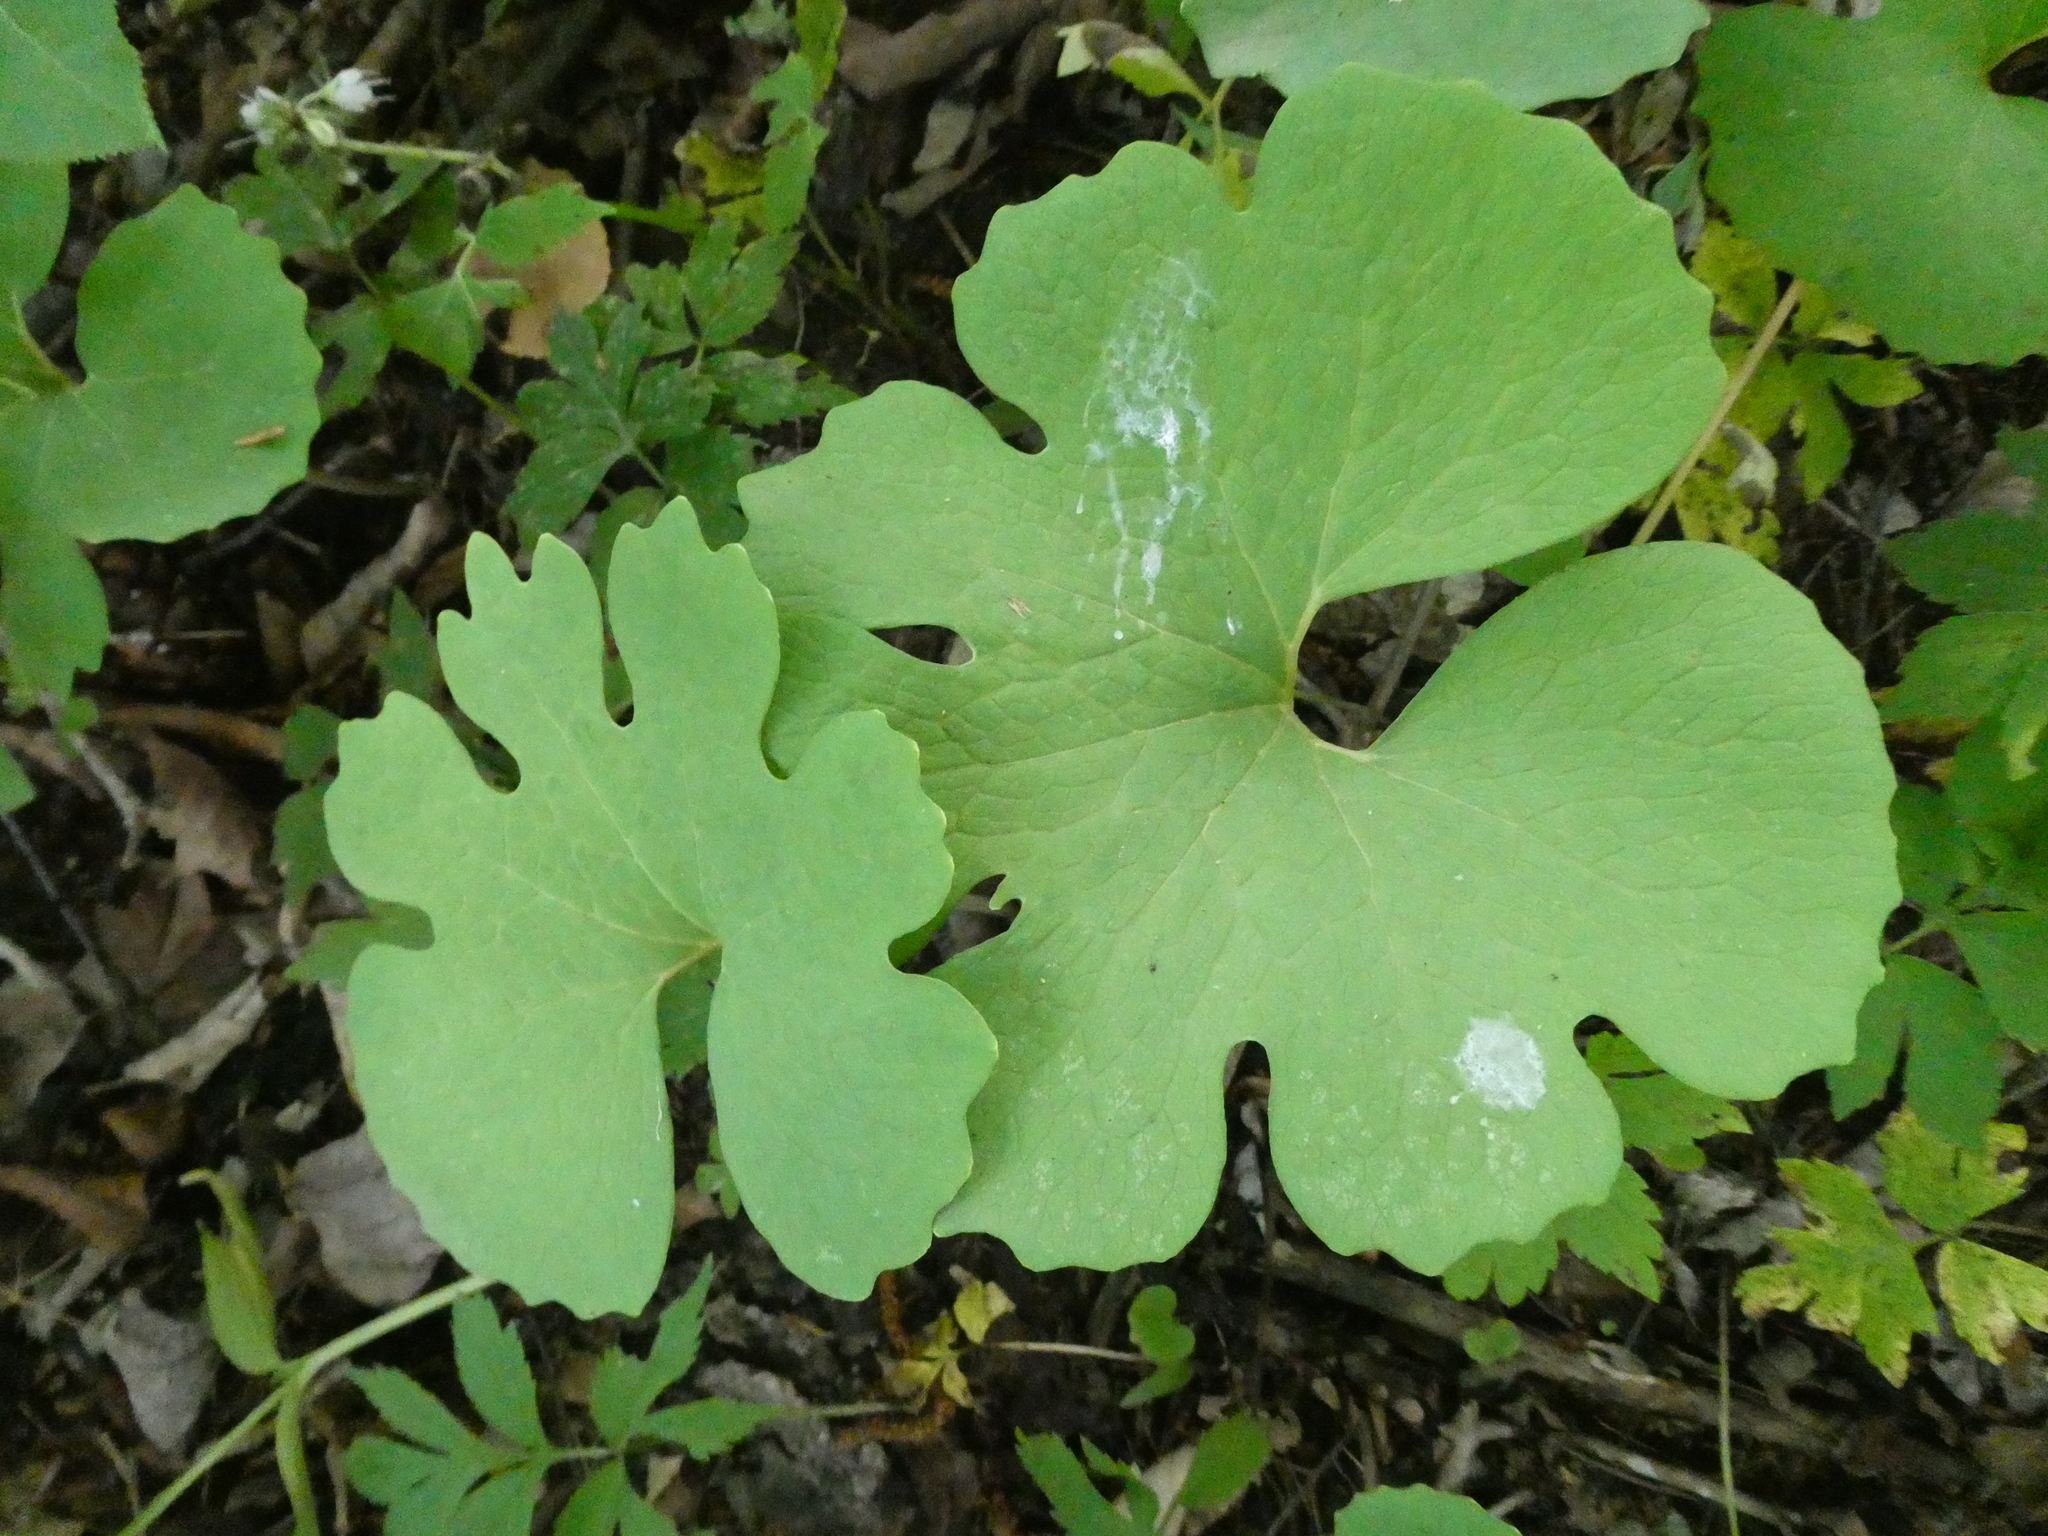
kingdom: Plantae
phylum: Tracheophyta
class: Magnoliopsida
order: Ranunculales
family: Papaveraceae
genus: Sanguinaria
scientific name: Sanguinaria canadensis
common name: Bloodroot
